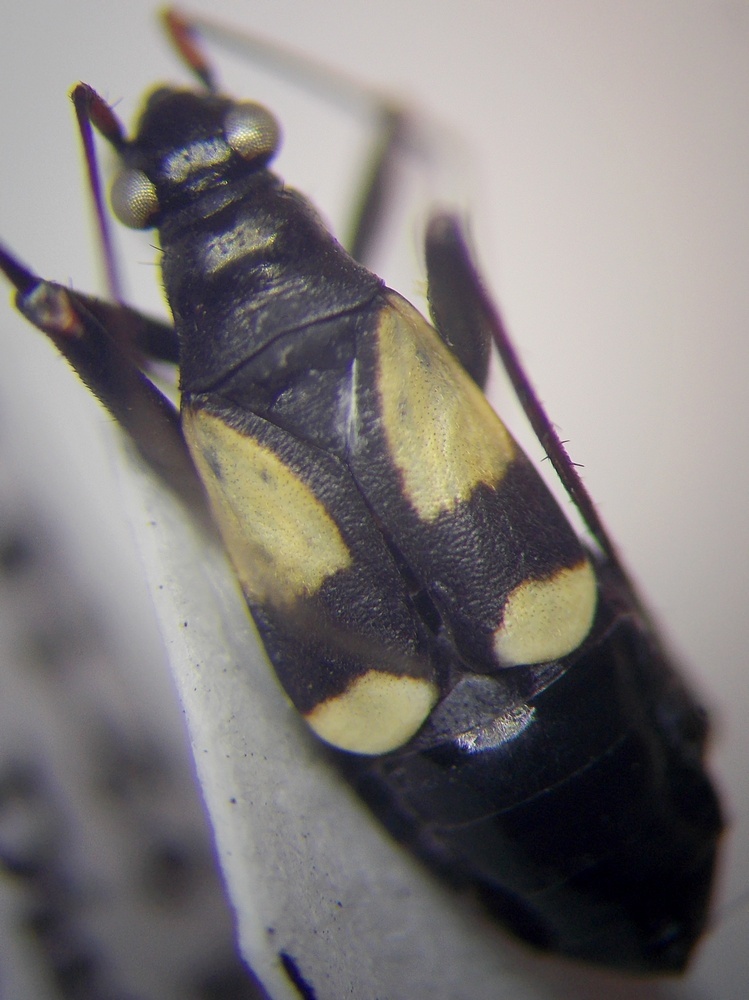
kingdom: Animalia
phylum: Arthropoda
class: Insecta
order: Hemiptera
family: Miridae
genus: Alloeonotus
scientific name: Alloeonotus fulvipes
